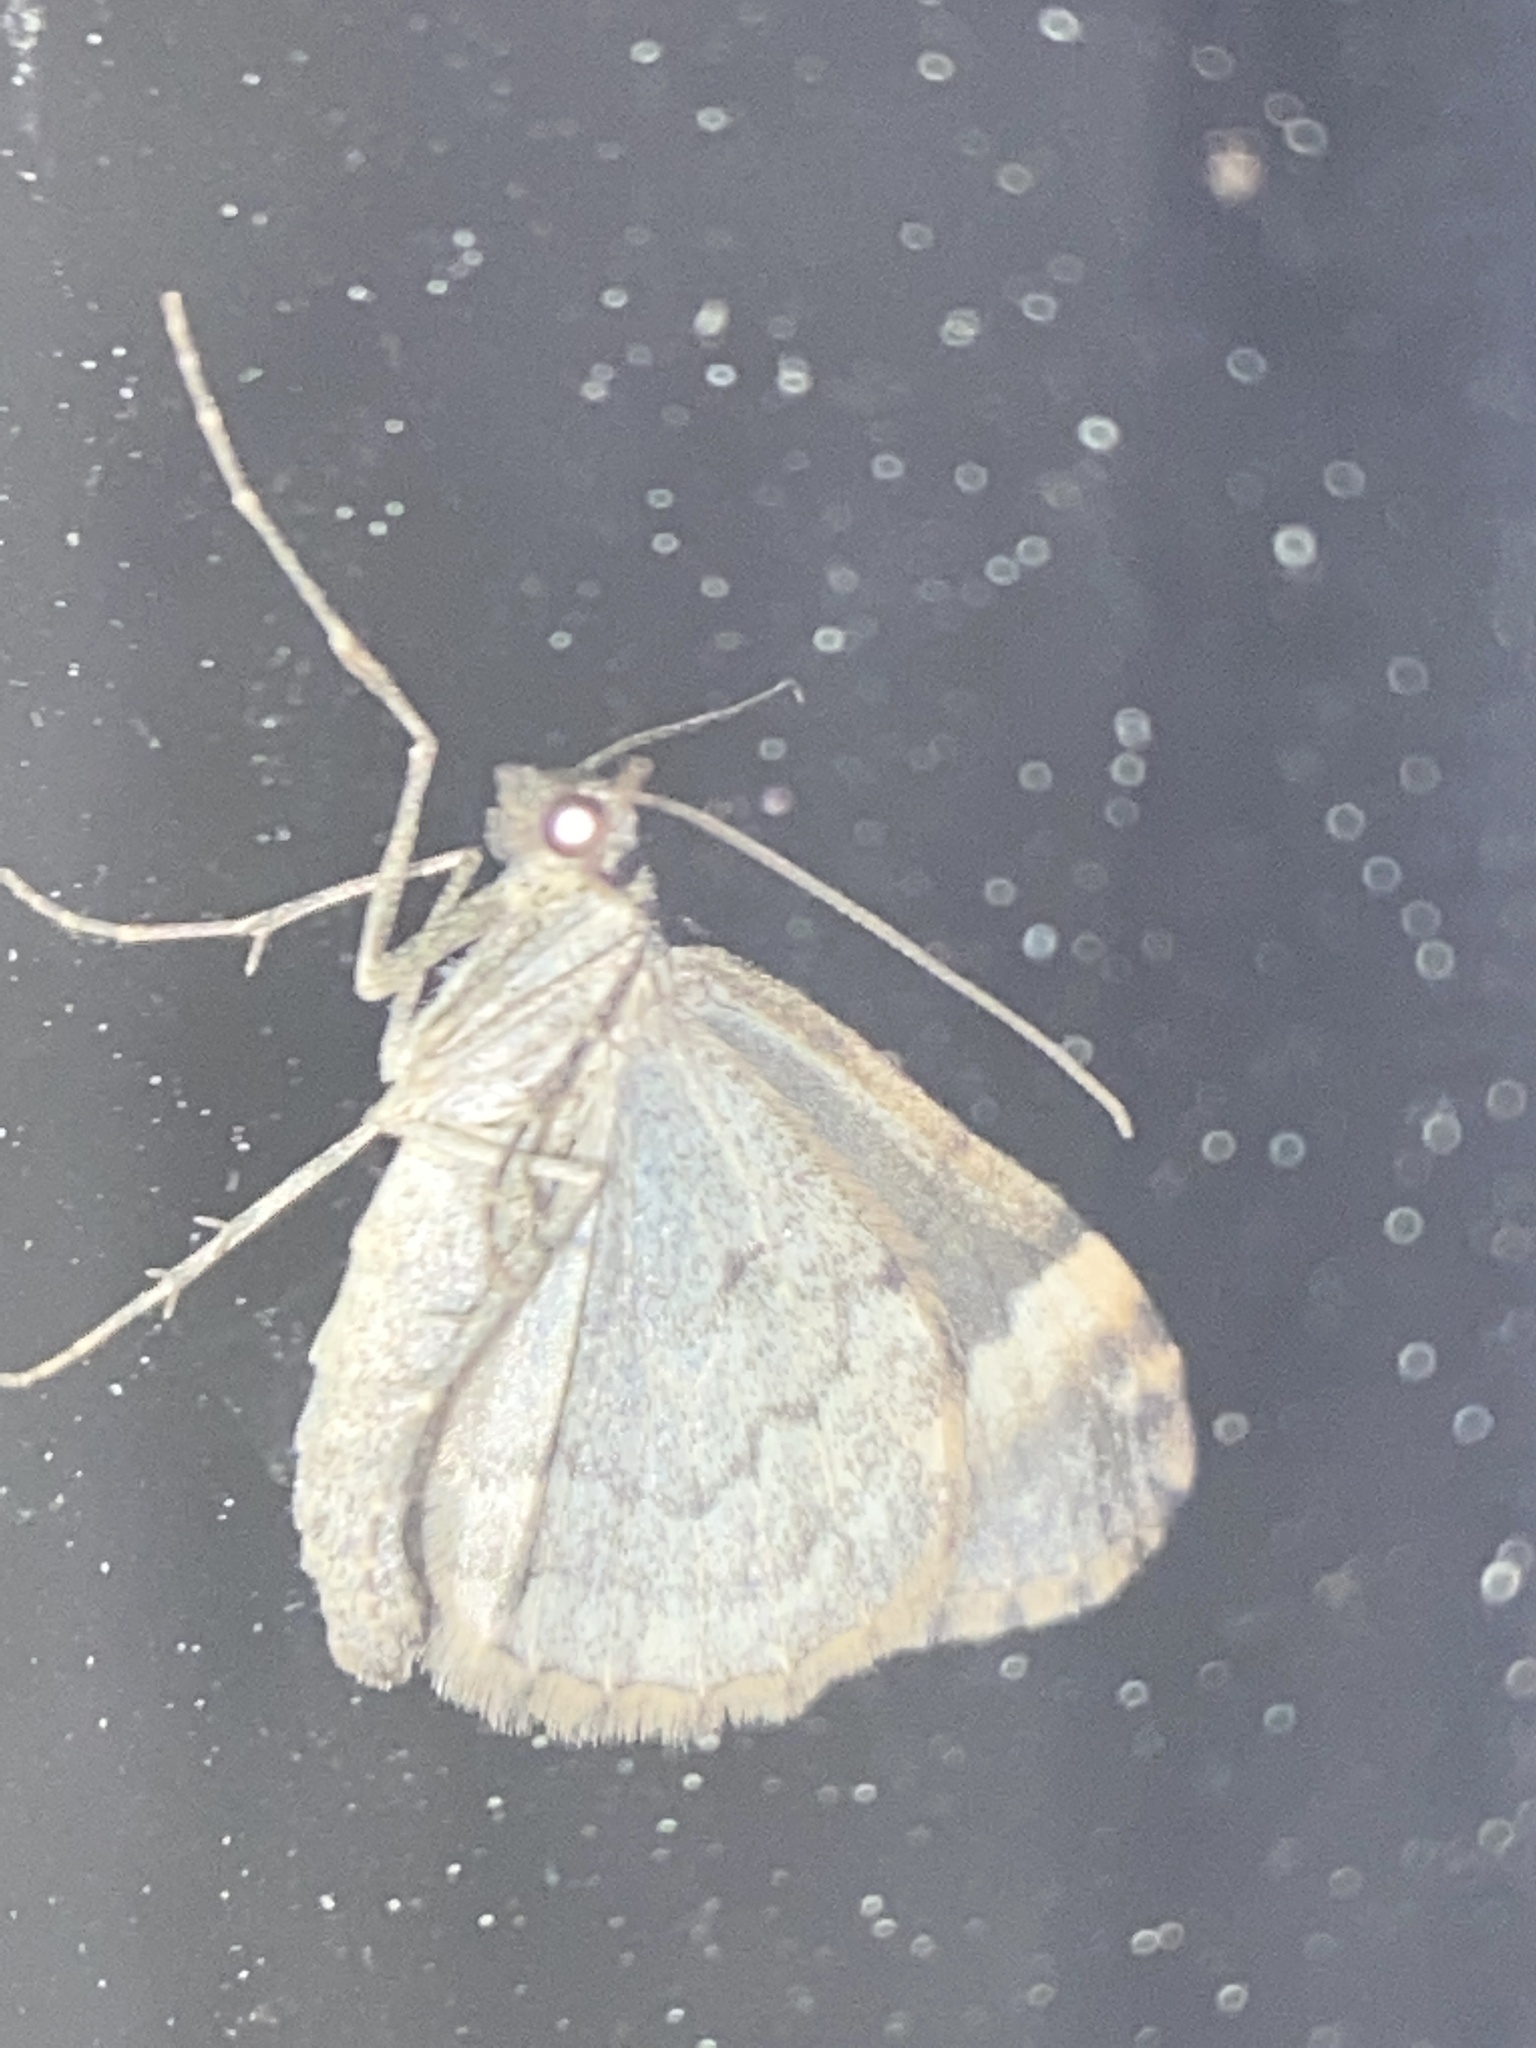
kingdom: Animalia
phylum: Arthropoda
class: Insecta
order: Lepidoptera
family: Geometridae
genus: Dysstroma
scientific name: Dysstroma truncata
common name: Common marbled carpet
